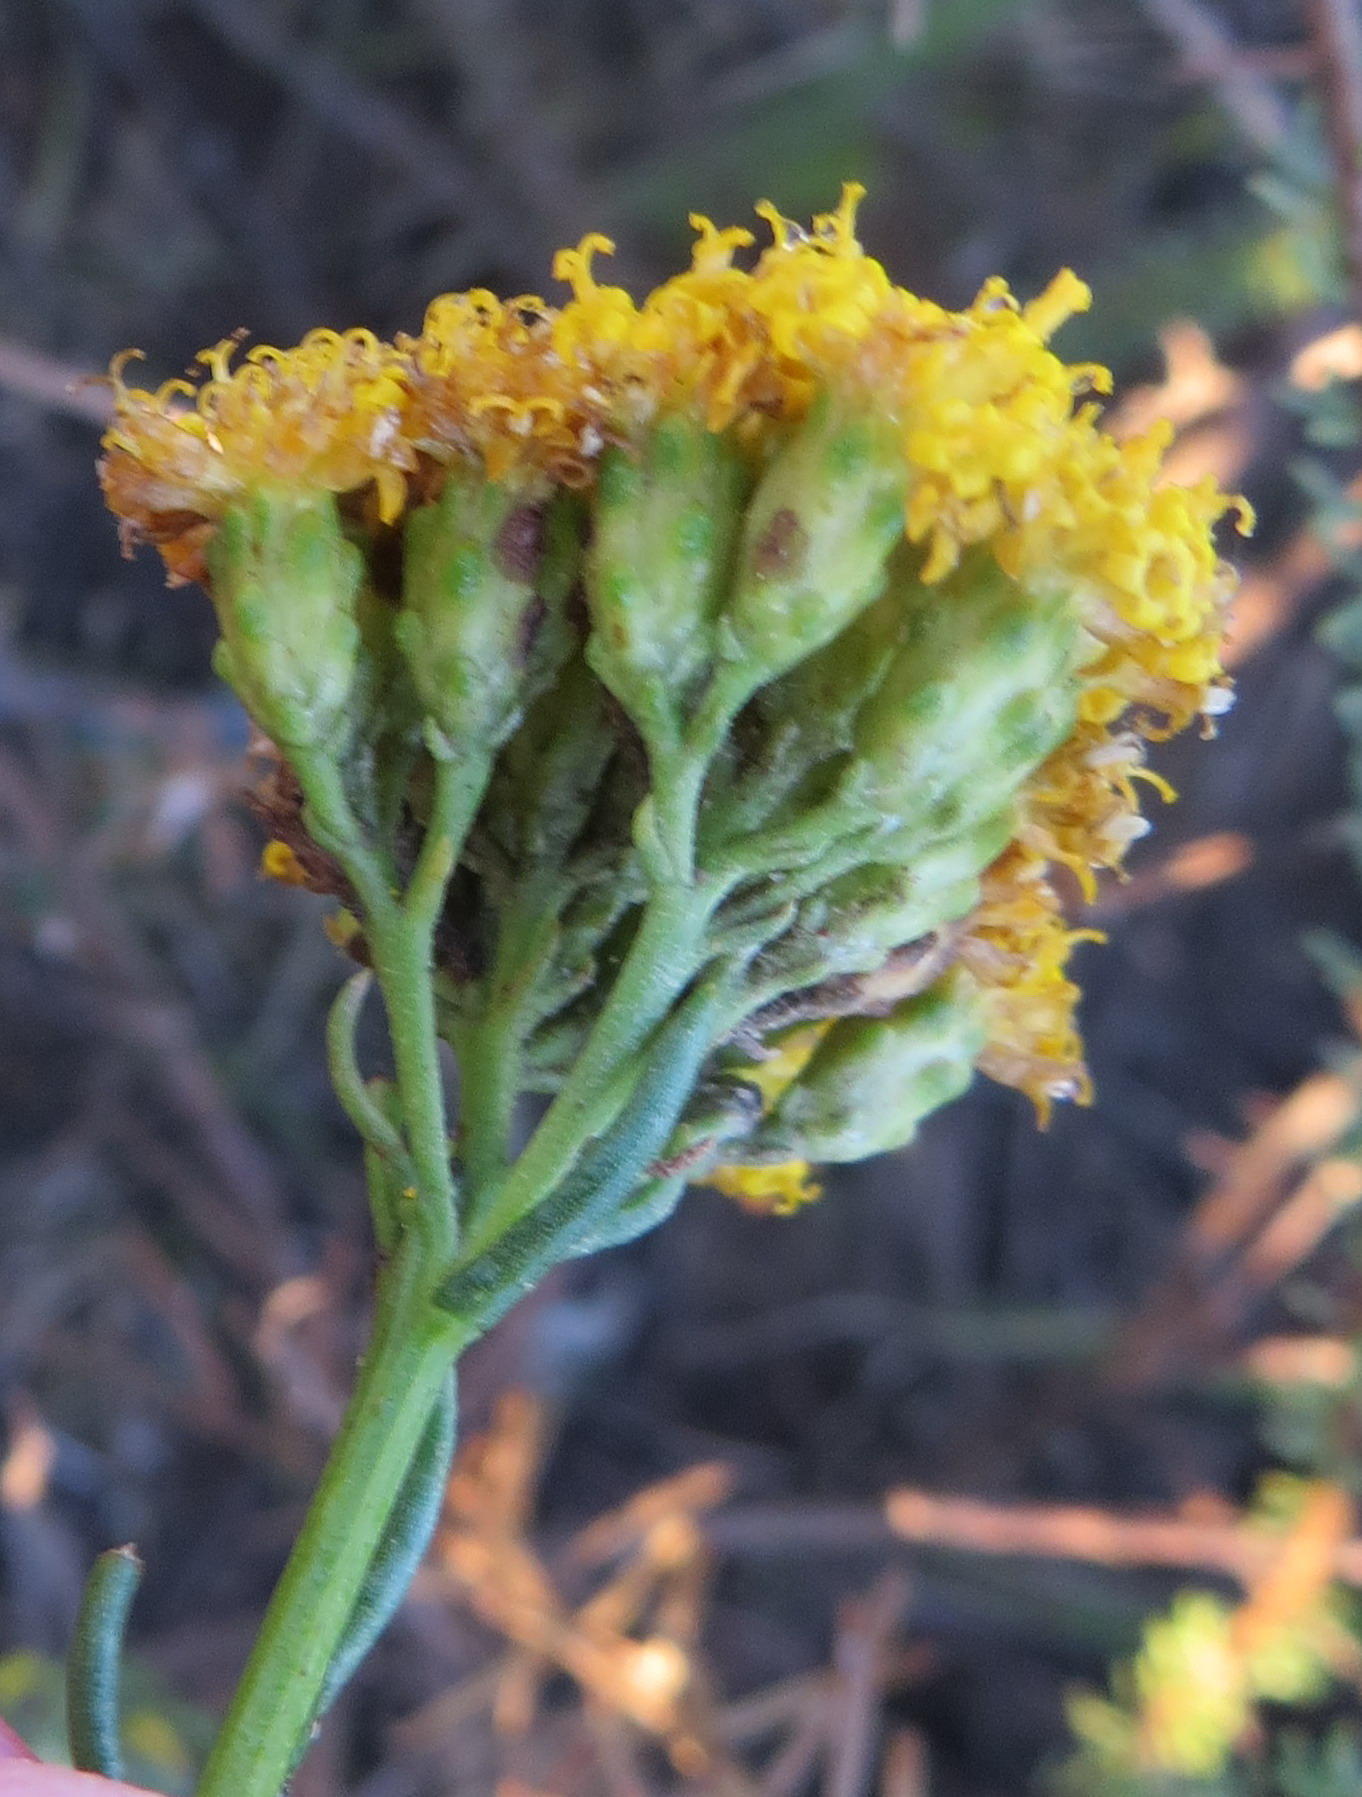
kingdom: Plantae
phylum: Tracheophyta
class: Magnoliopsida
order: Asterales
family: Asteraceae
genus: Athanasia
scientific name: Athanasia filiformis
